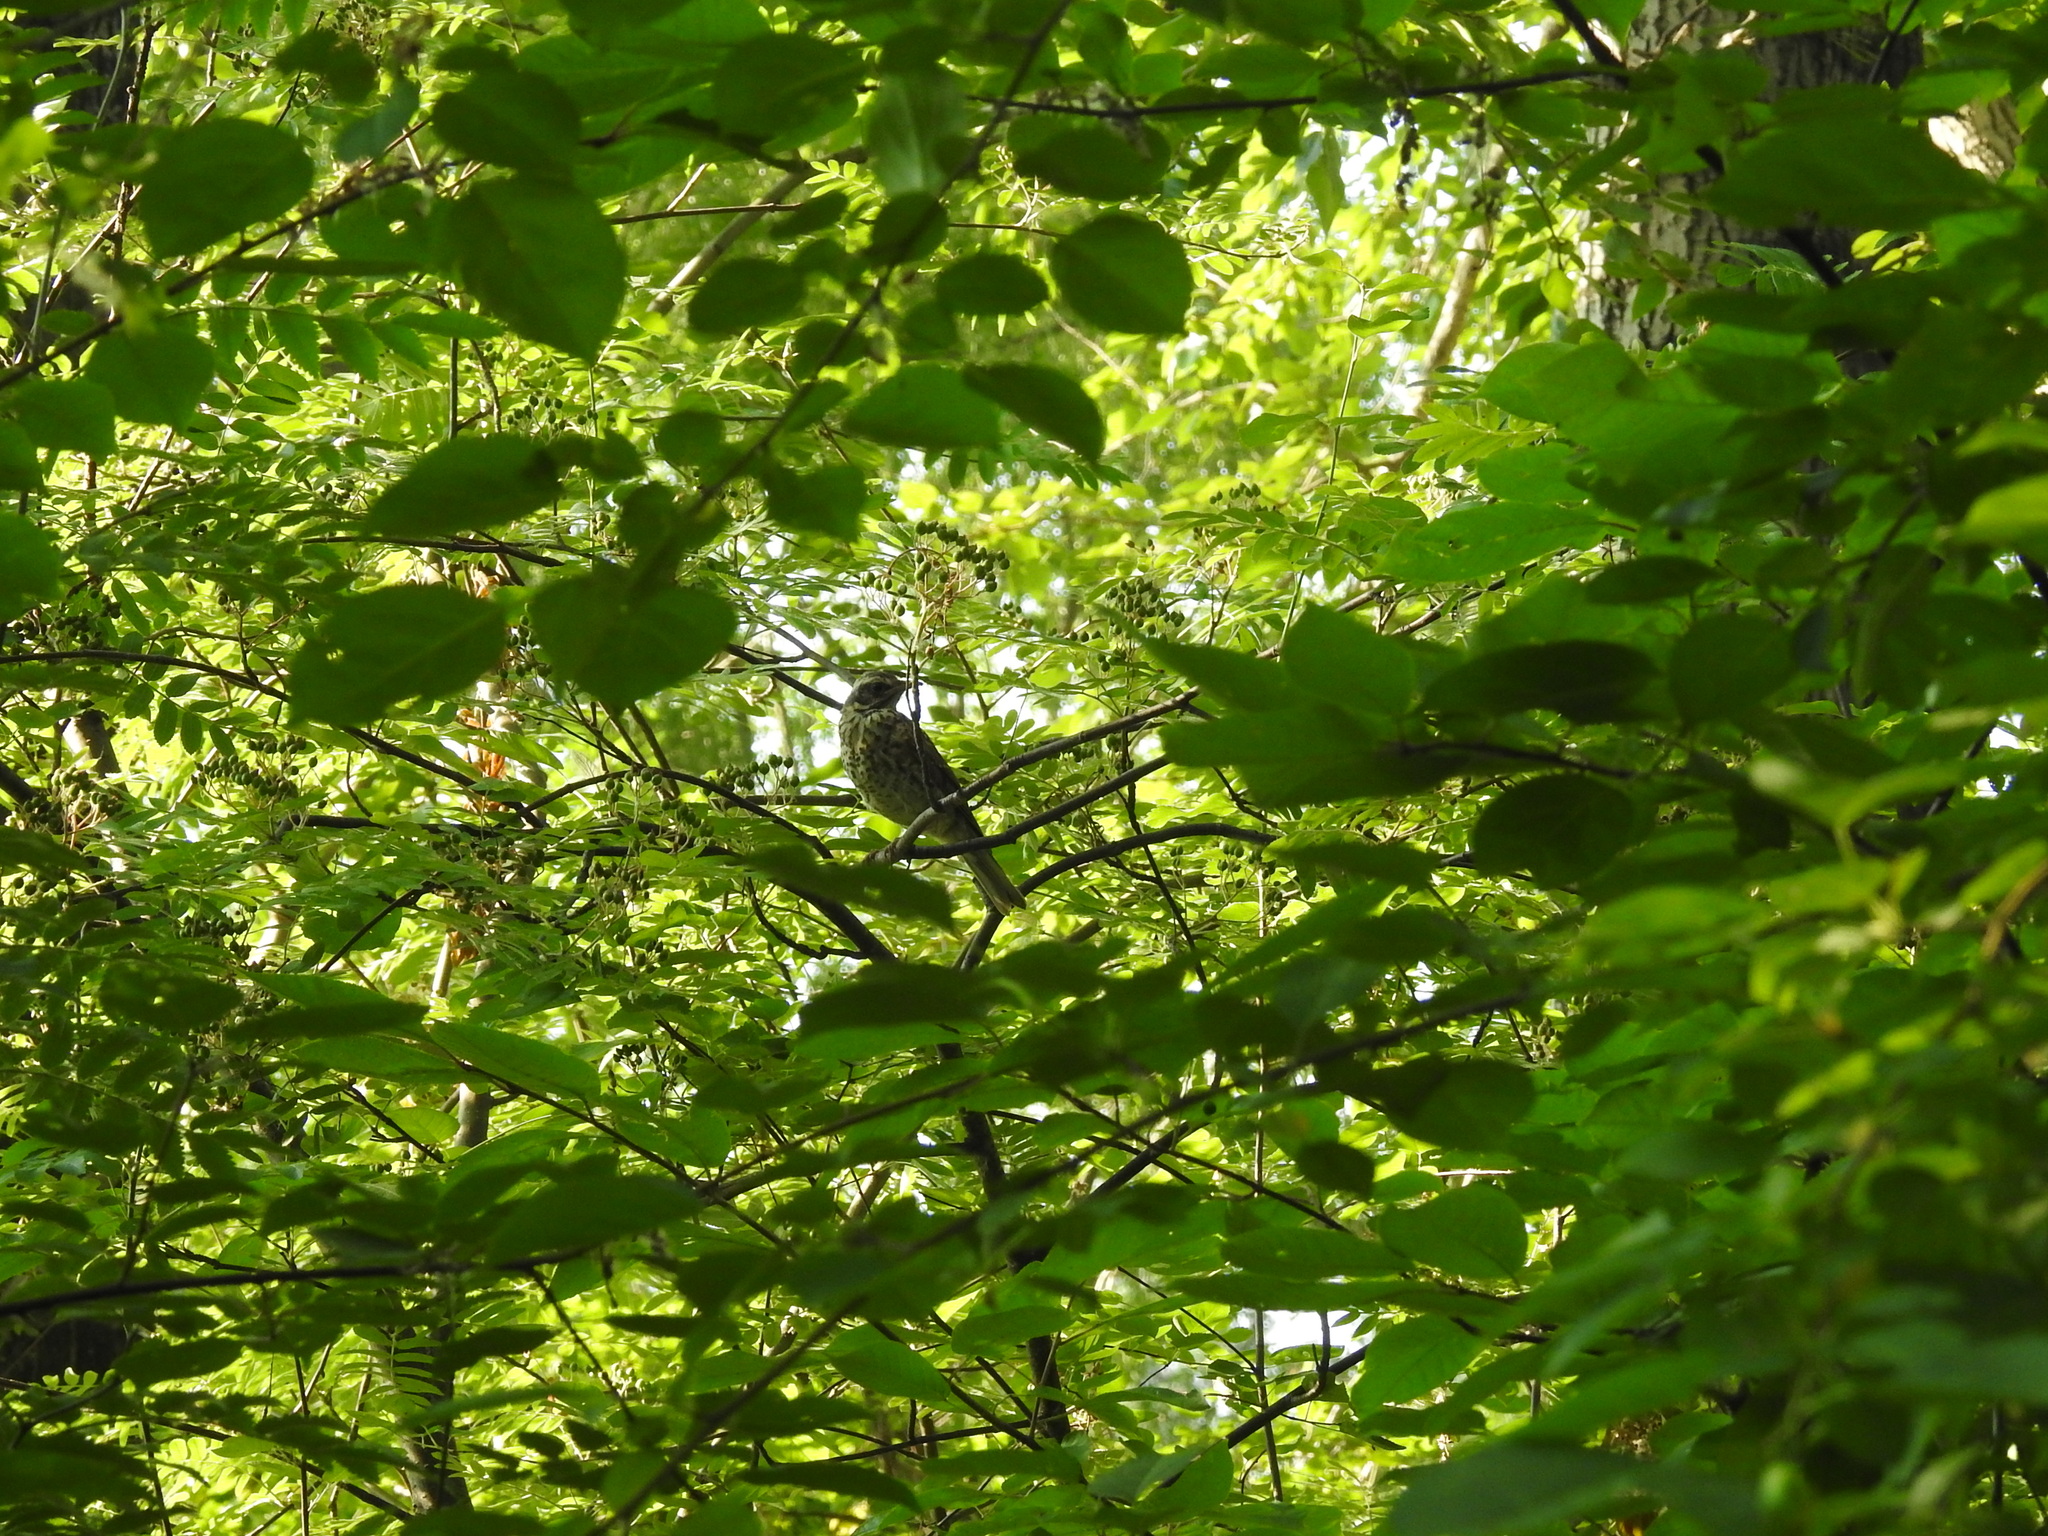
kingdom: Animalia
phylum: Chordata
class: Aves
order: Passeriformes
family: Turdidae
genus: Turdus
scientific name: Turdus philomelos
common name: Song thrush
